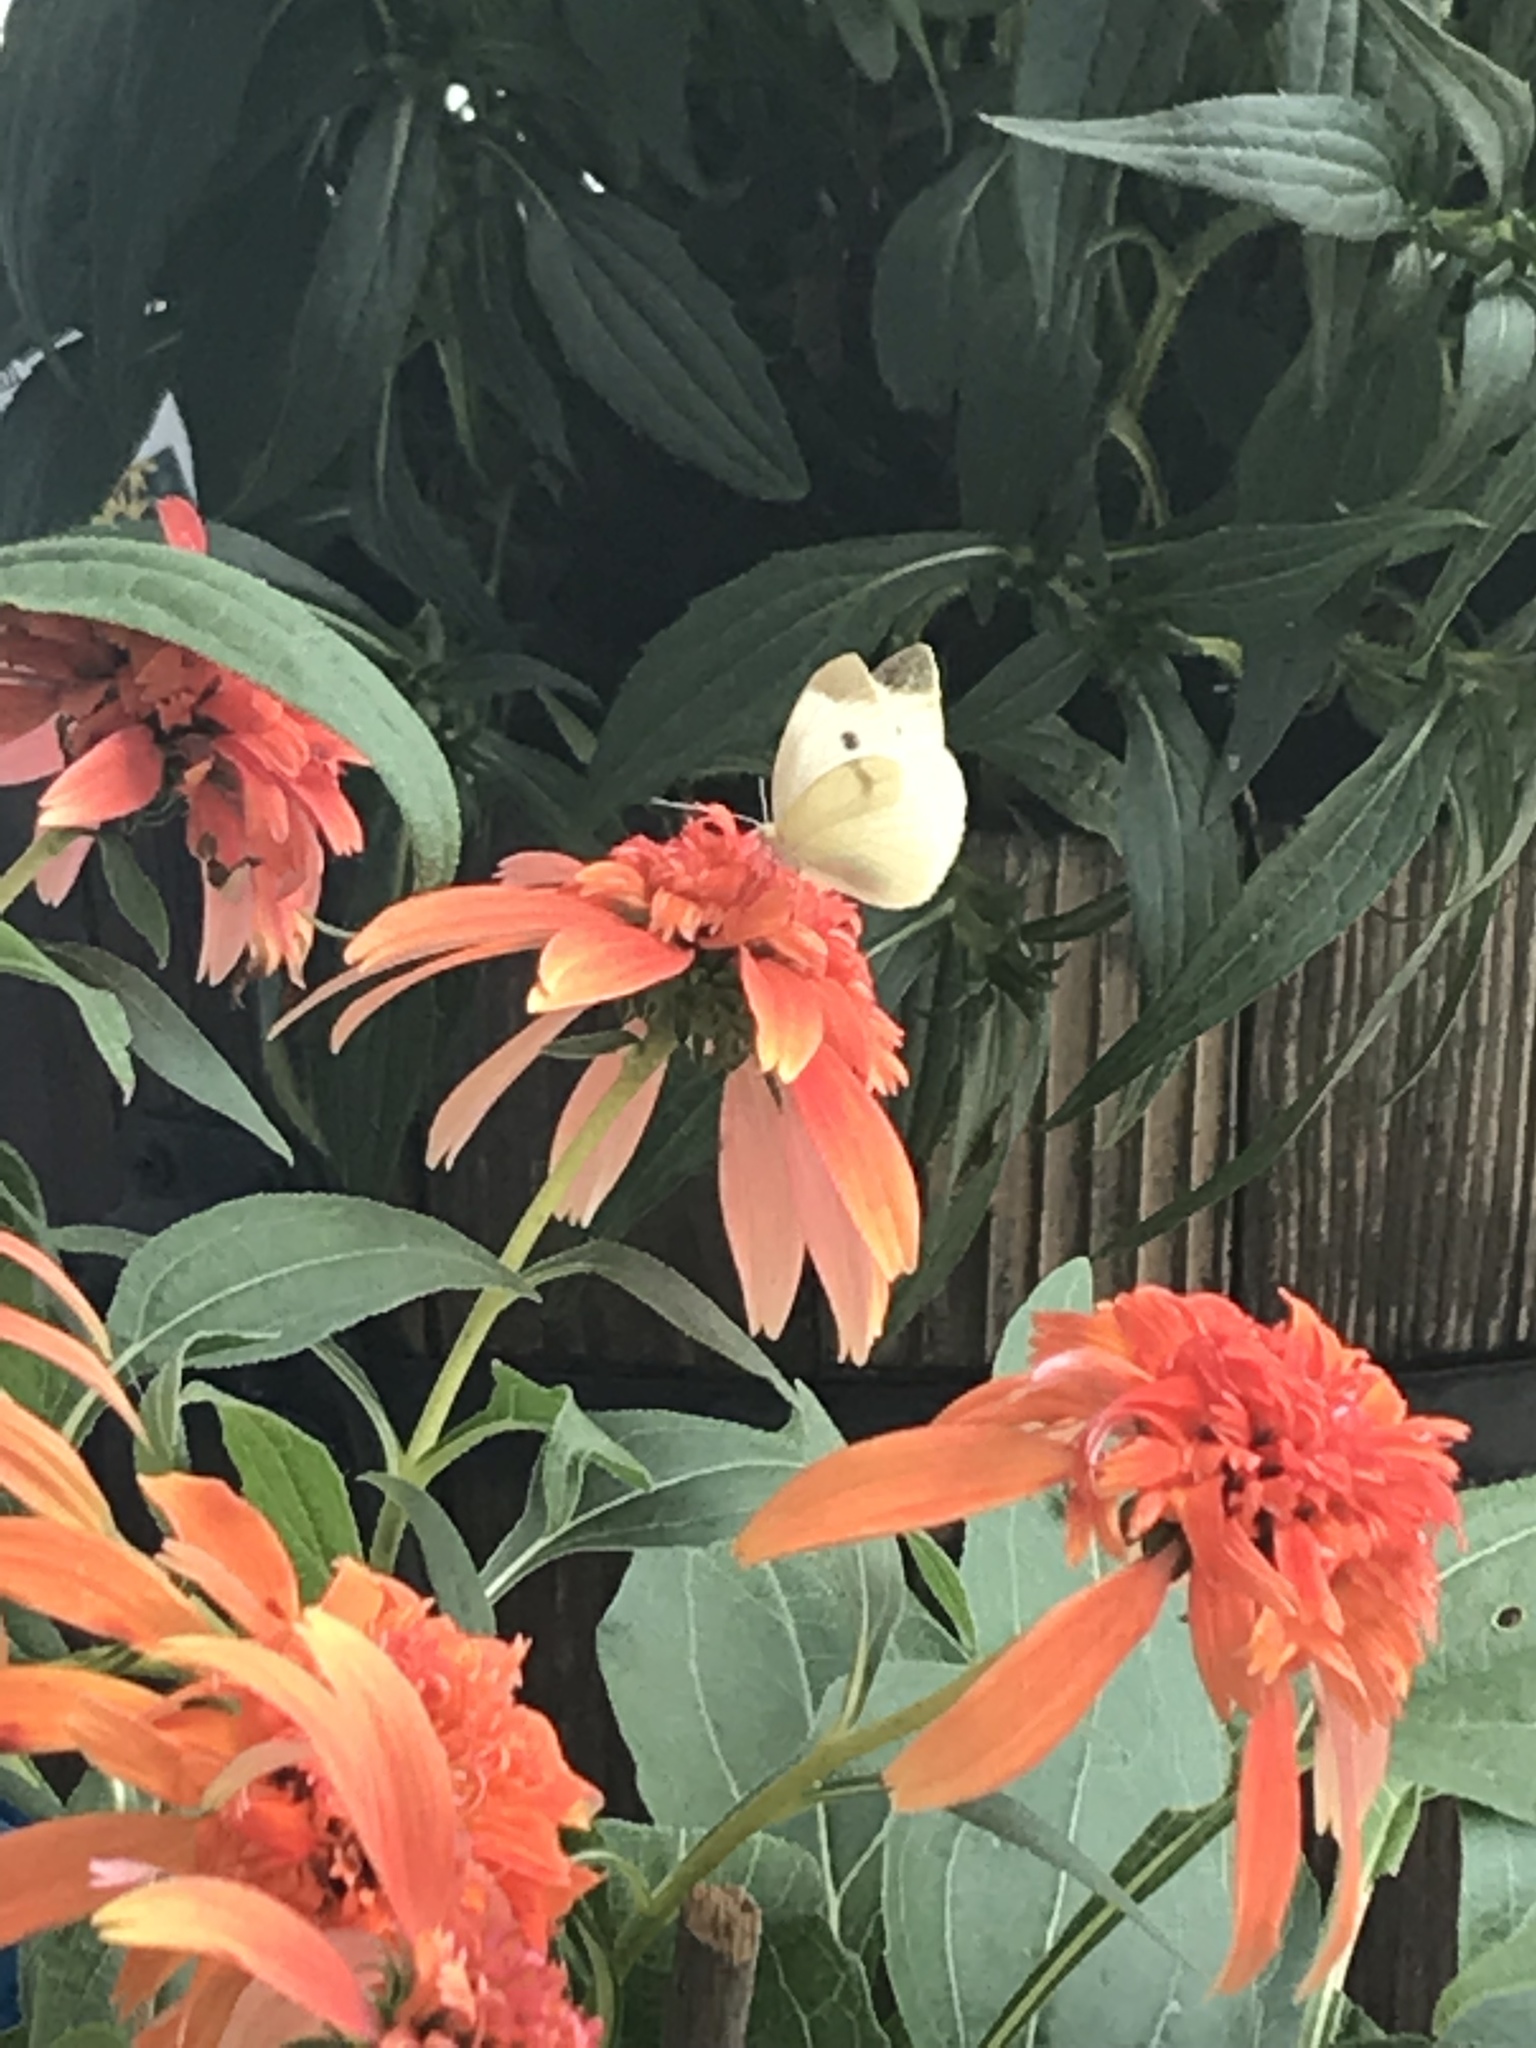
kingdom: Animalia
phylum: Arthropoda
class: Insecta
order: Lepidoptera
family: Pieridae
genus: Pieris
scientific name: Pieris rapae
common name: Small white
